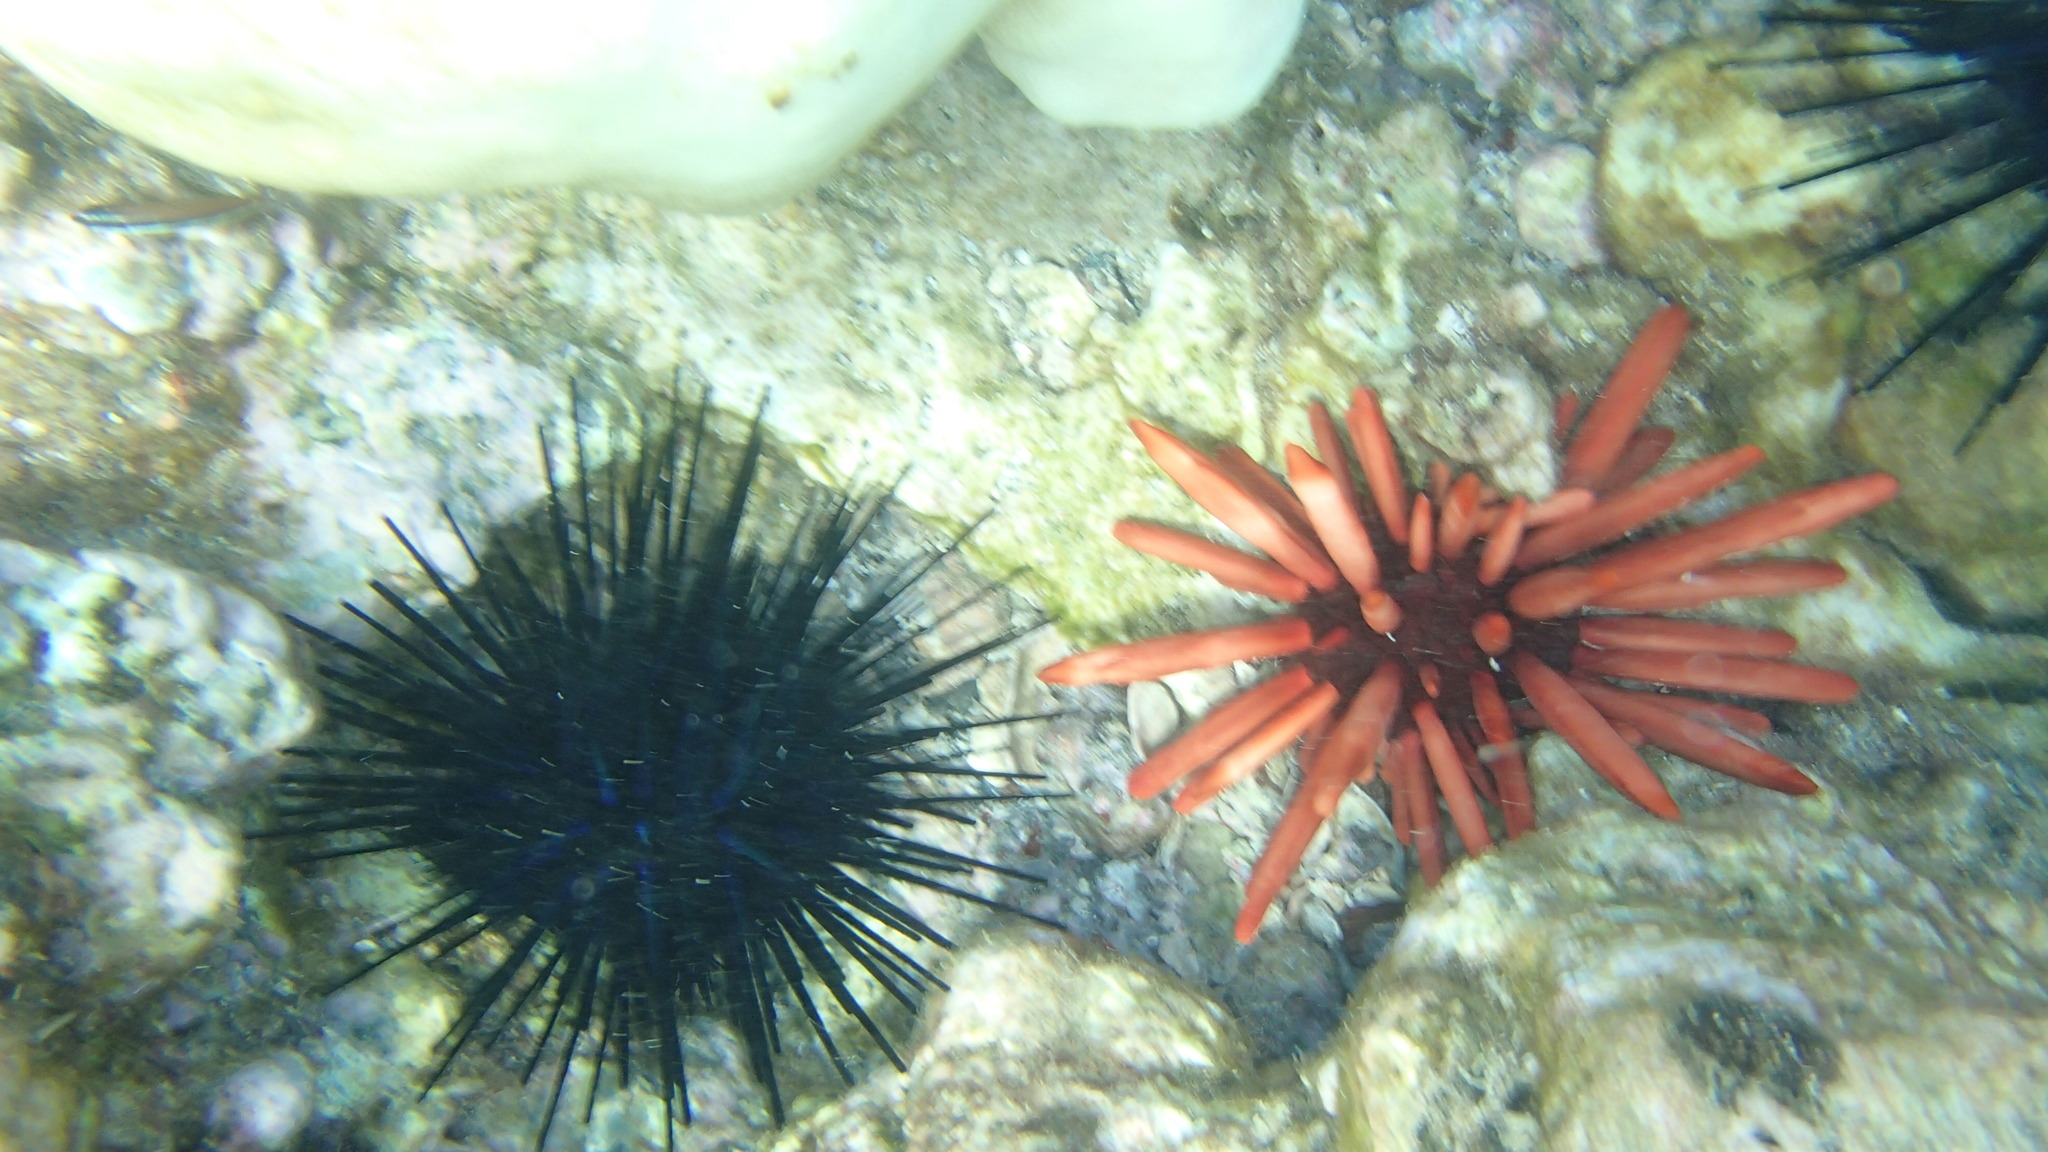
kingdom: Animalia
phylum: Echinodermata
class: Echinoidea
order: Diadematoida
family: Diadematidae
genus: Echinothrix
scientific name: Echinothrix diadema
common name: Schwarzer diademseeigel
